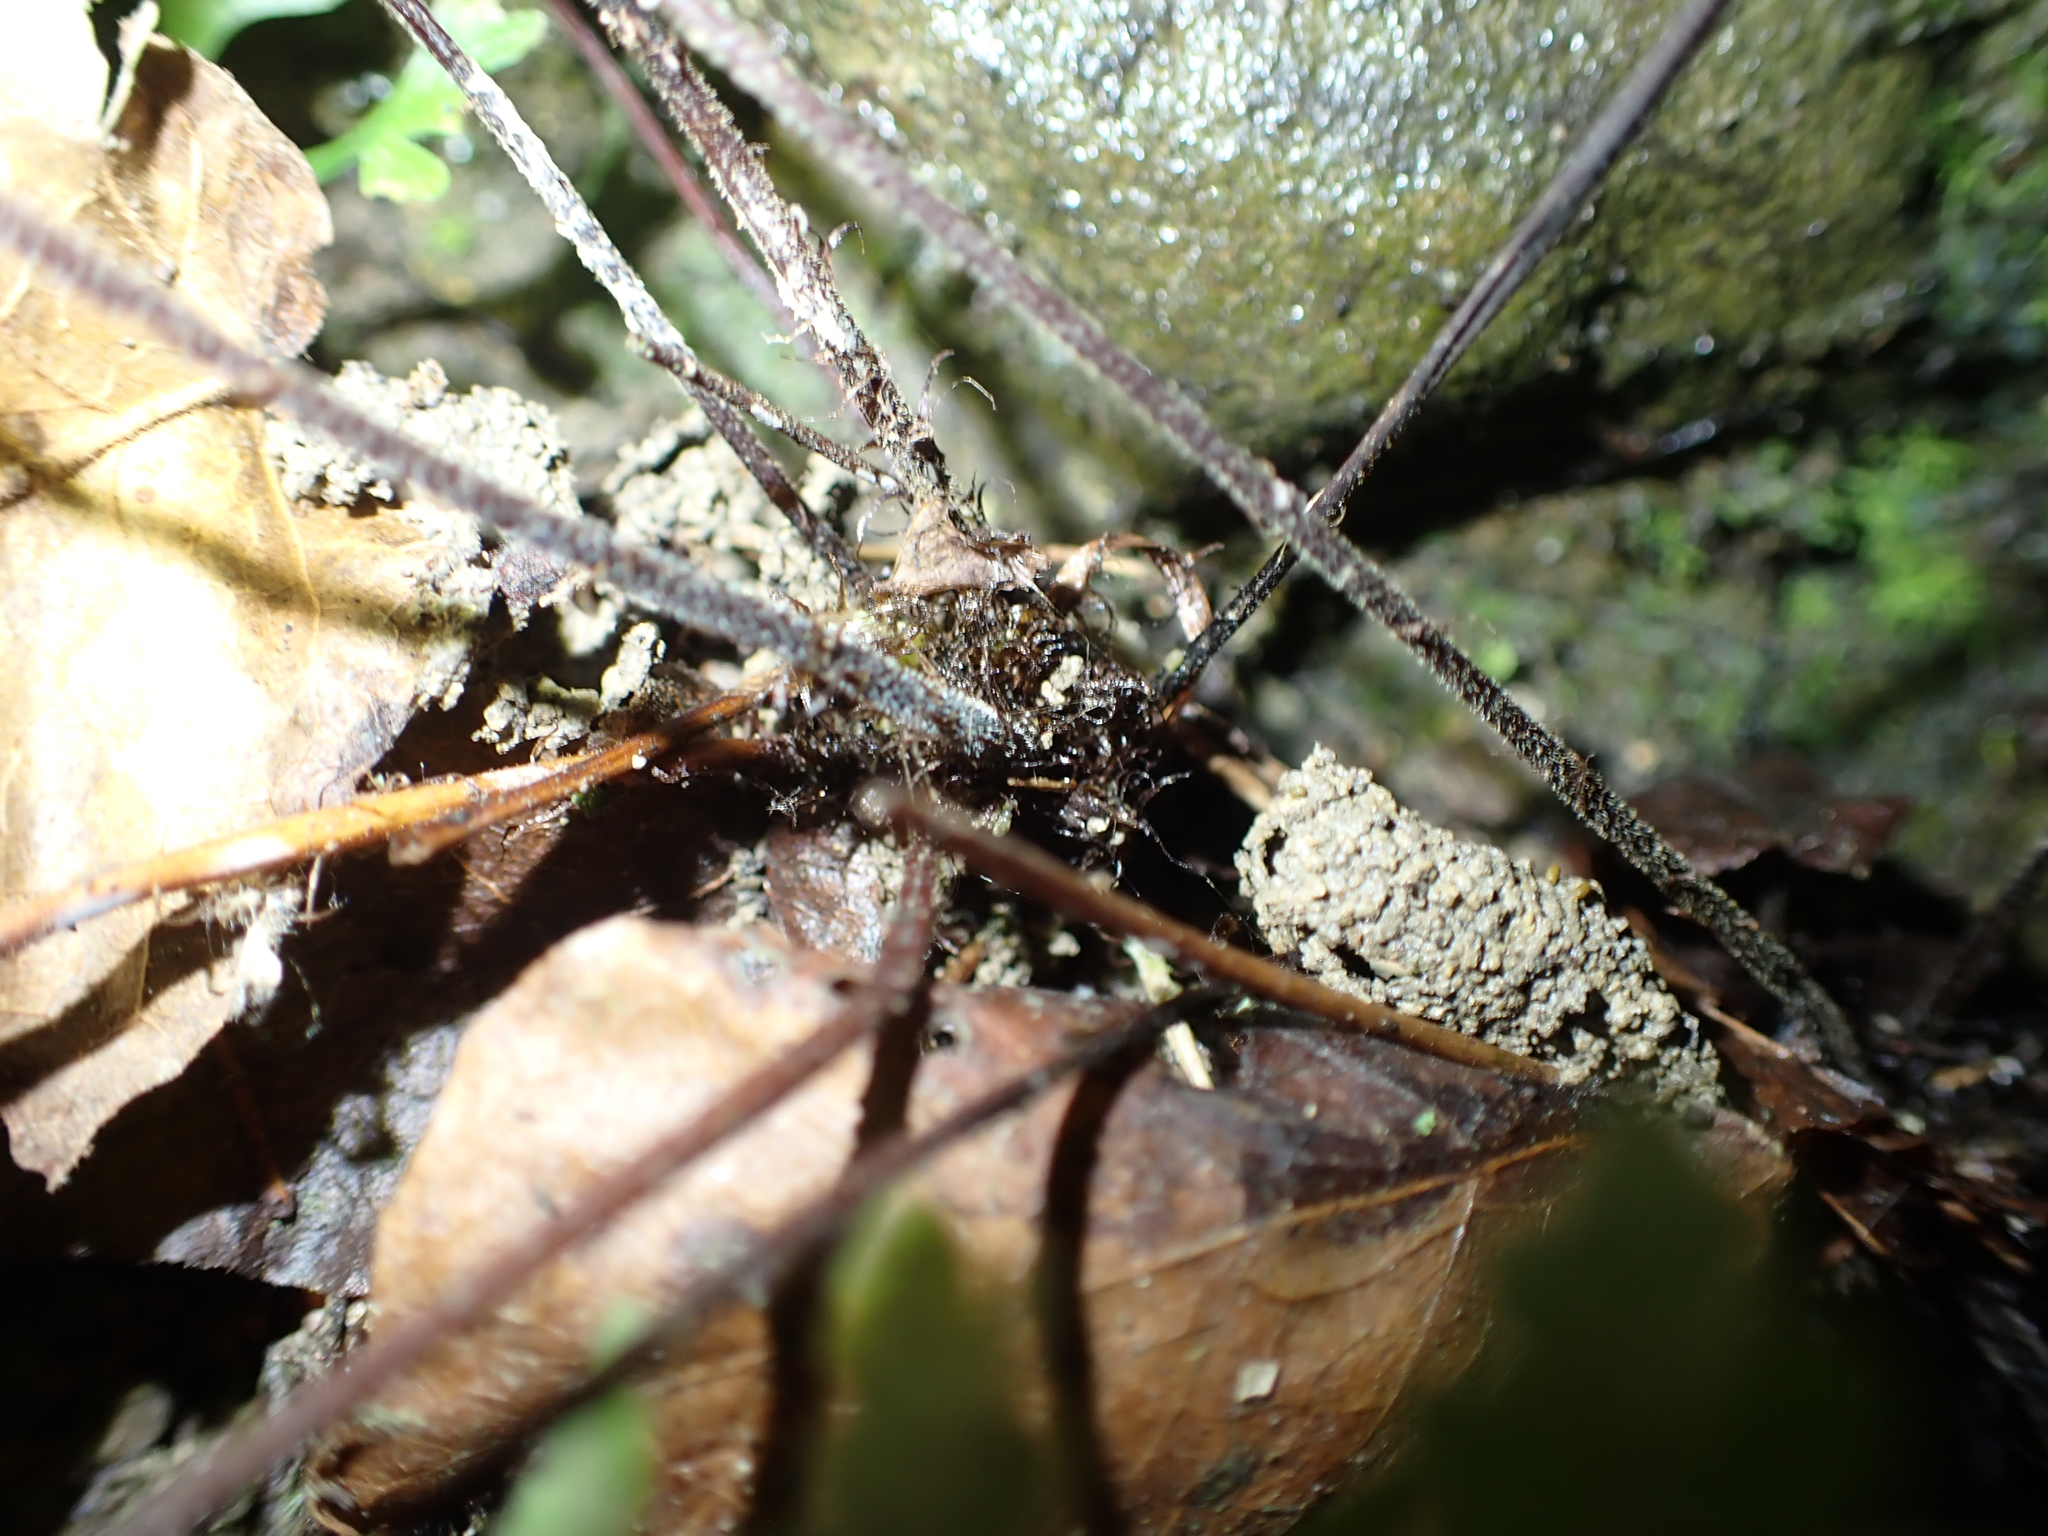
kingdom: Plantae
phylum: Tracheophyta
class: Polypodiopsida
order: Polypodiales
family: Tectariaceae
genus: Tectaria
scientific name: Tectaria polymorpha
